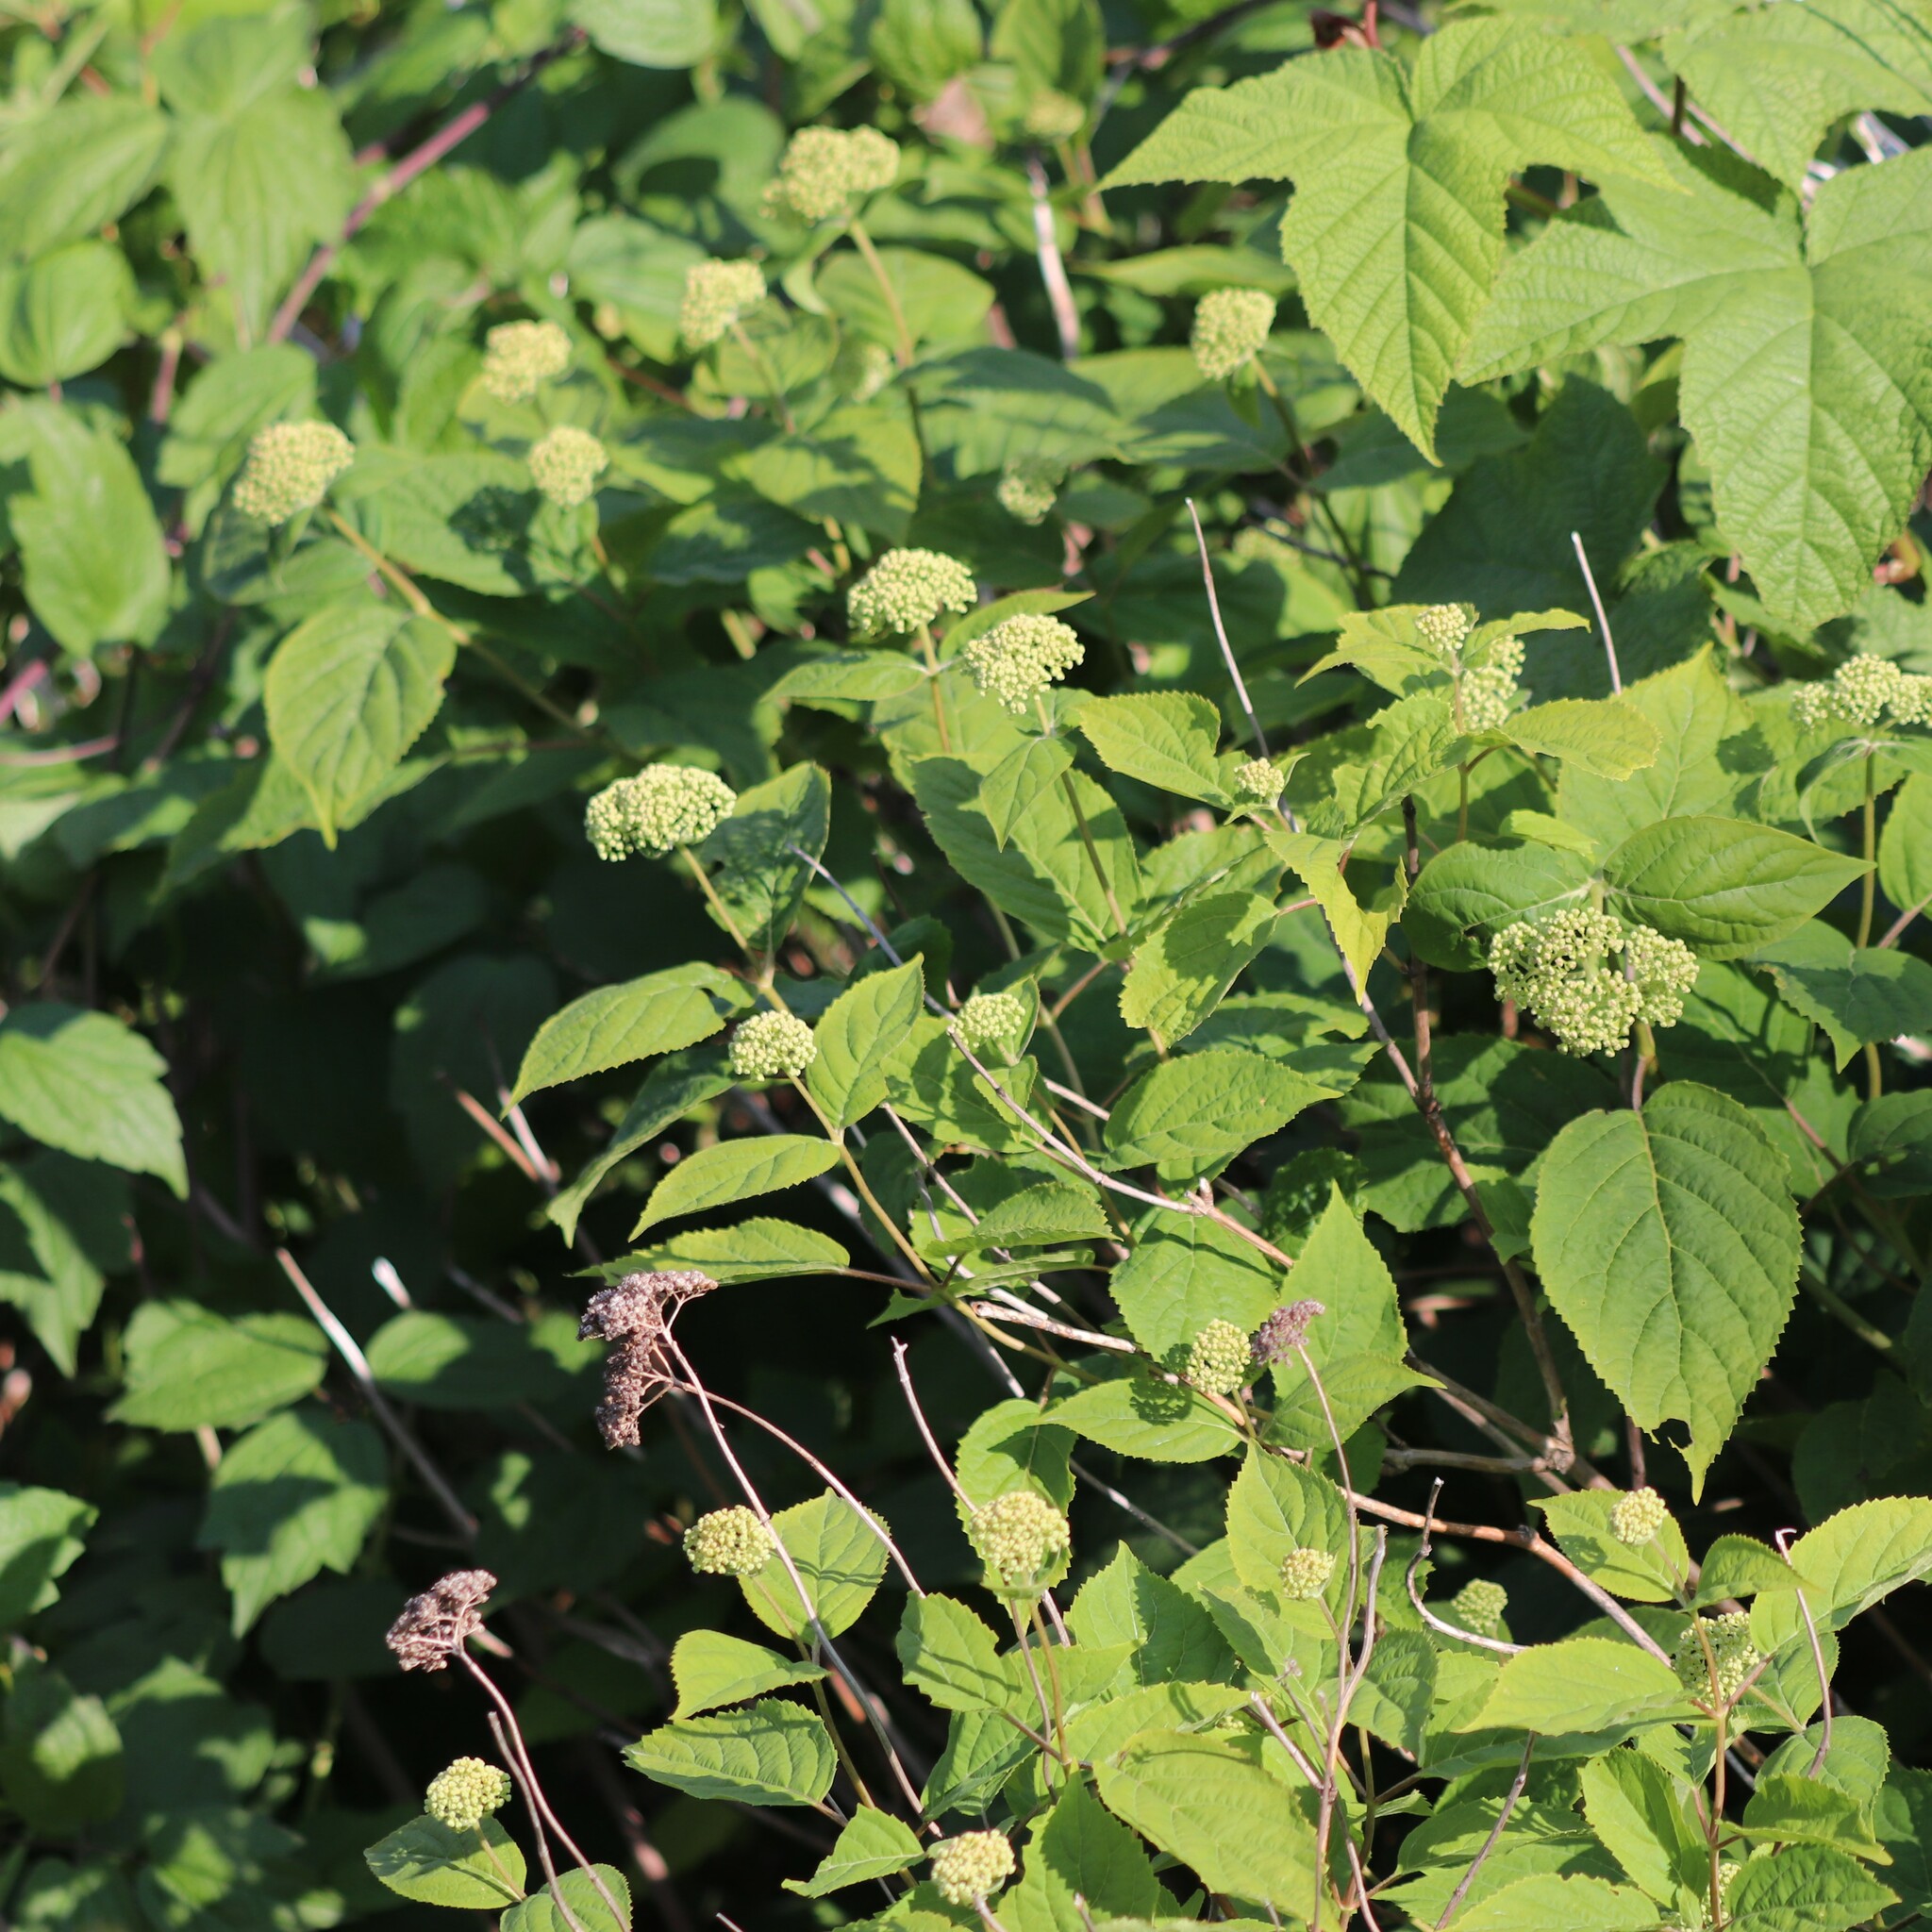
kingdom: Plantae
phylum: Tracheophyta
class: Magnoliopsida
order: Cornales
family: Hydrangeaceae
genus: Hydrangea
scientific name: Hydrangea arborescens
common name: Sevenbark
